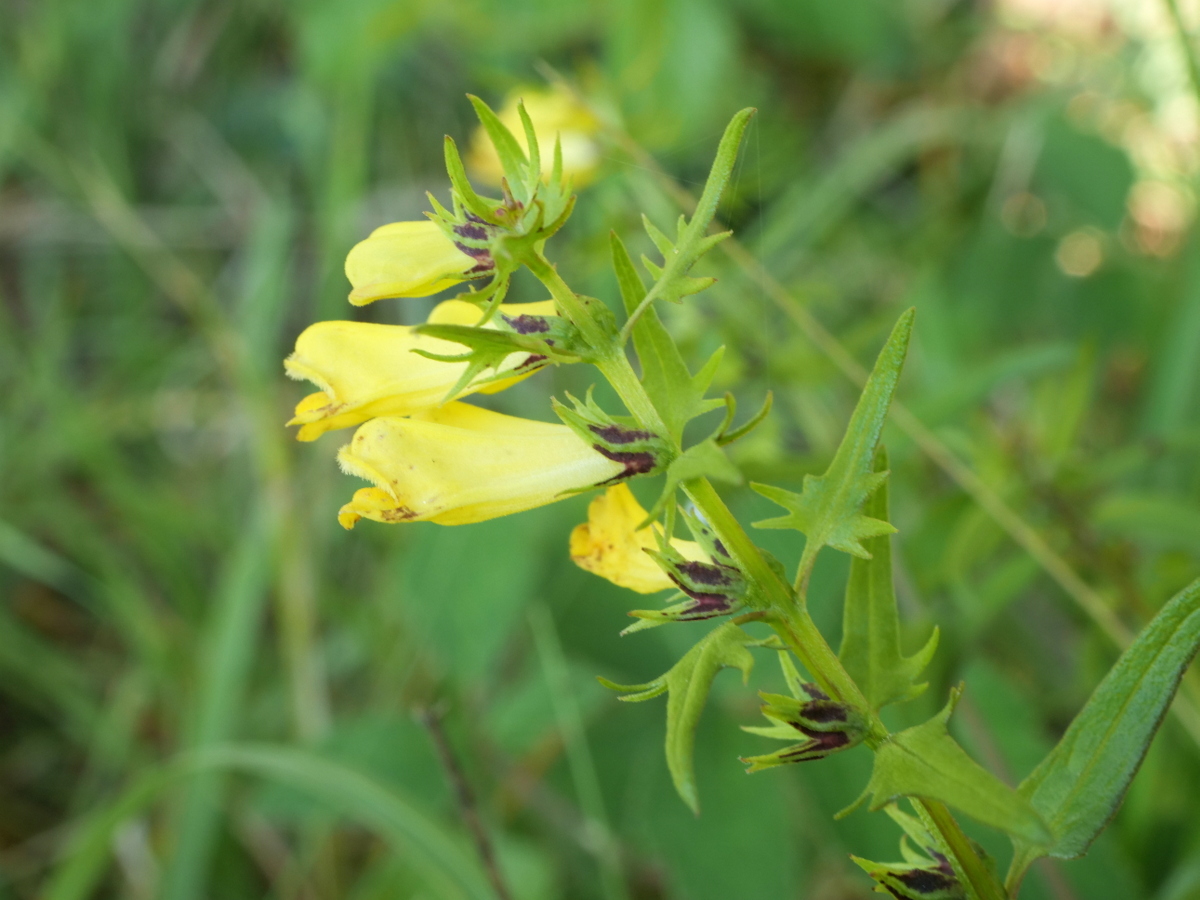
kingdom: Plantae
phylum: Tracheophyta
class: Magnoliopsida
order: Lamiales
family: Orobanchaceae
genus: Melampyrum
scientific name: Melampyrum pratense
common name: Common cow-wheat
